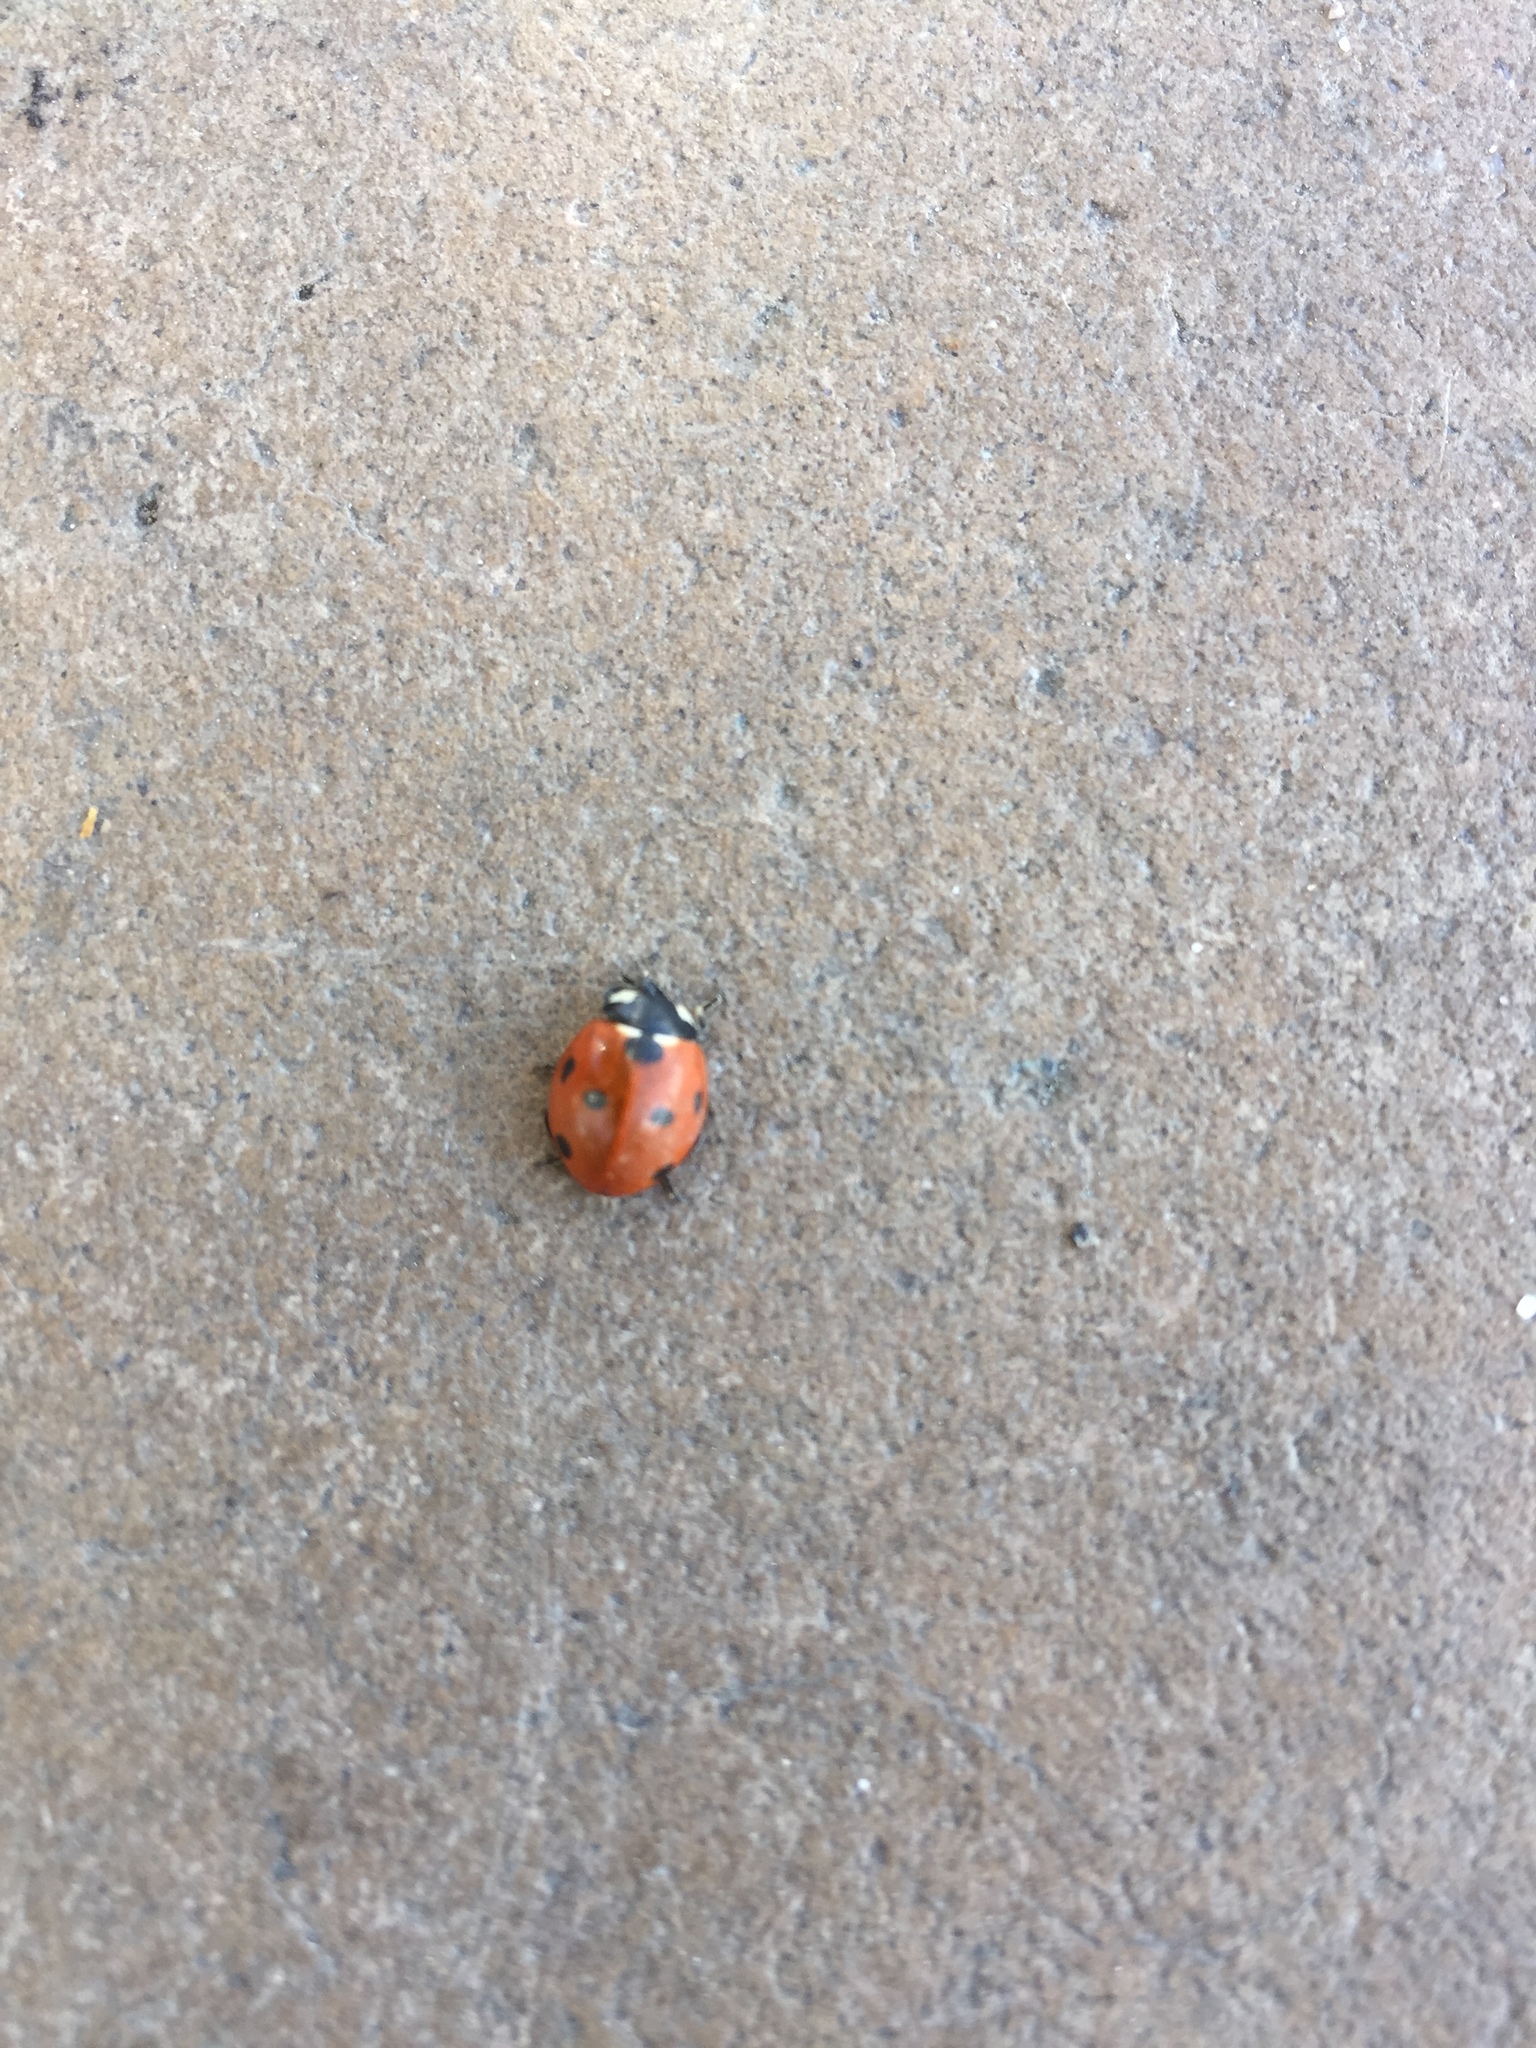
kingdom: Animalia
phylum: Arthropoda
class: Insecta
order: Coleoptera
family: Coccinellidae
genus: Coccinella
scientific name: Coccinella septempunctata
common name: Sevenspotted lady beetle
